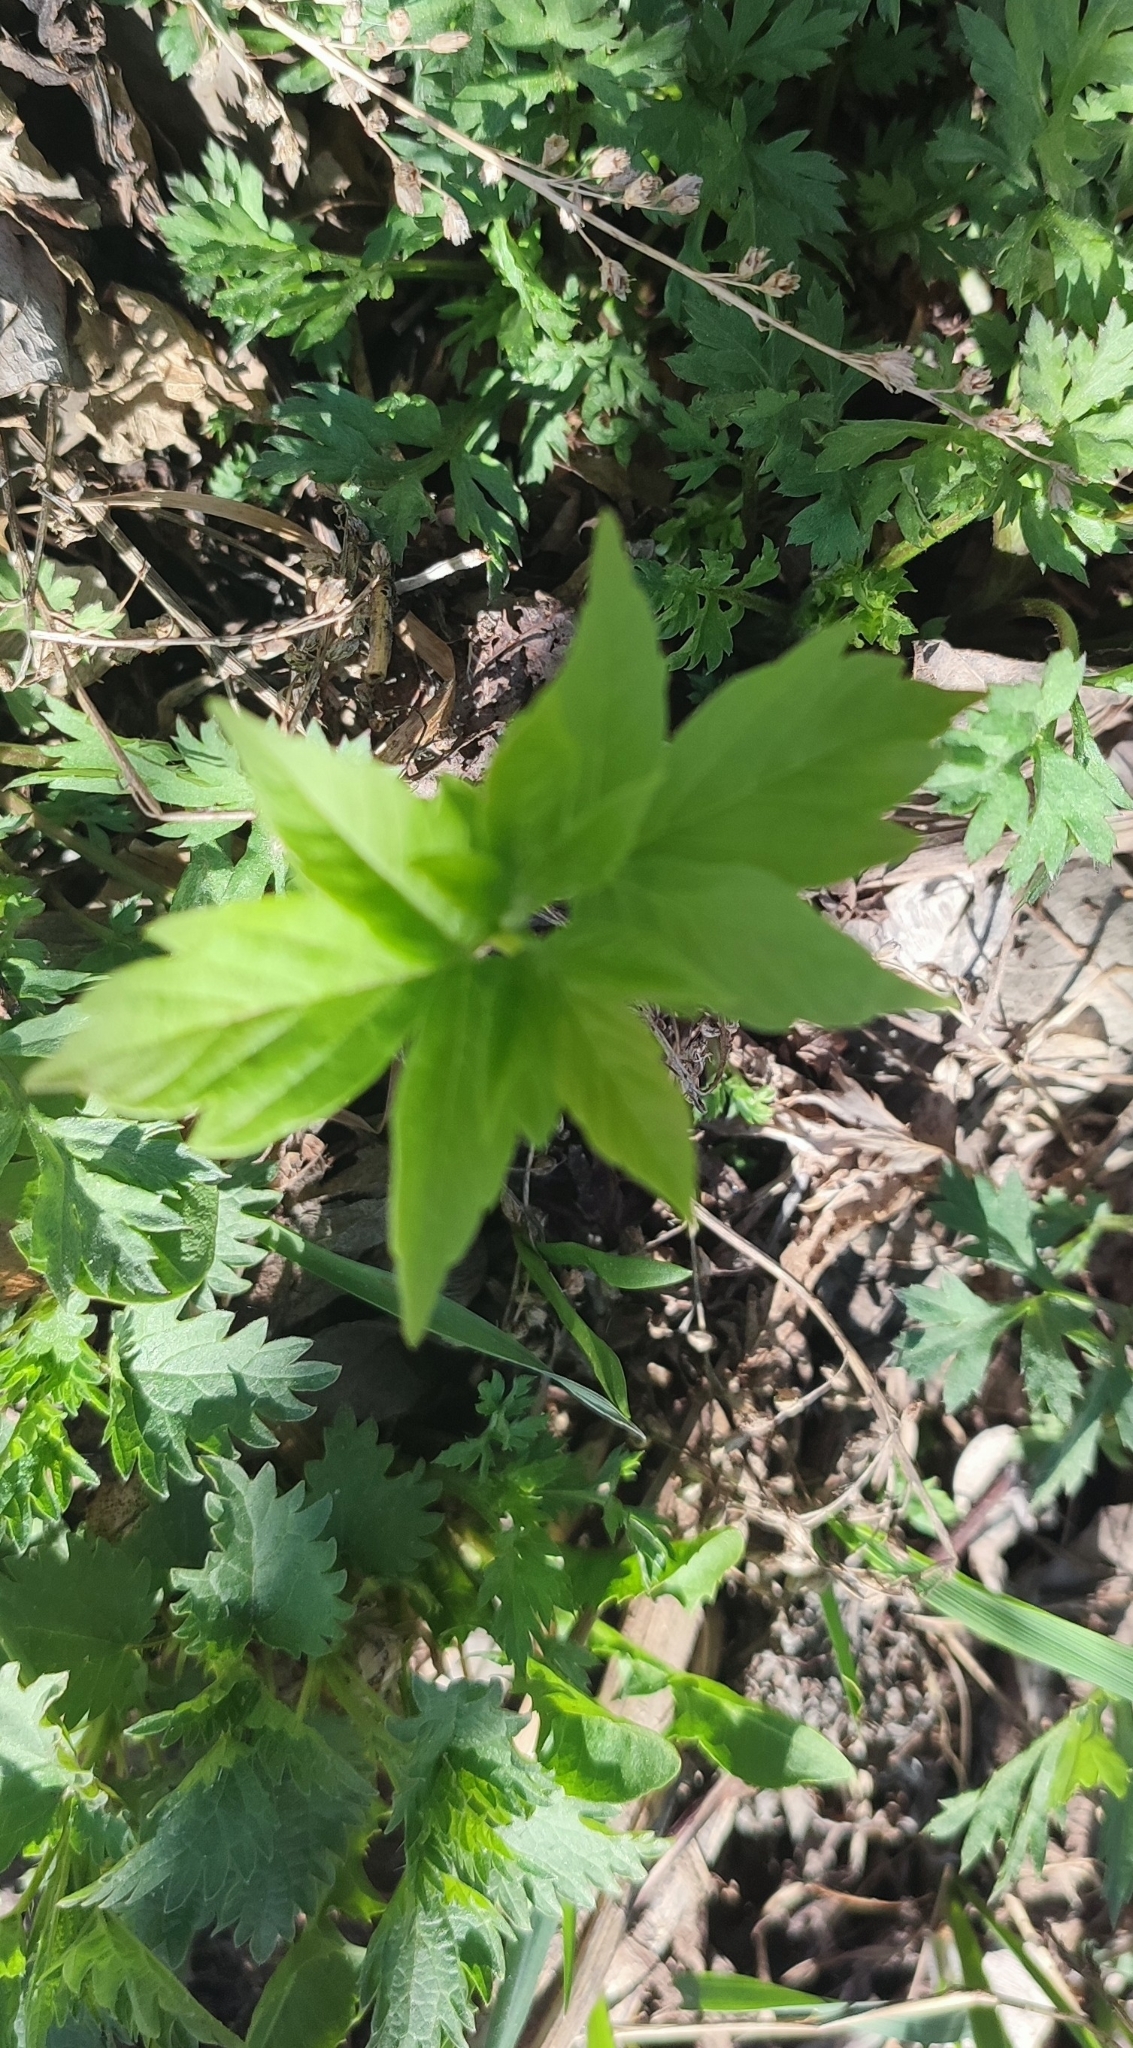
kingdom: Plantae
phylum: Tracheophyta
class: Magnoliopsida
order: Sapindales
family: Sapindaceae
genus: Acer
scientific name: Acer negundo
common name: Ashleaf maple
